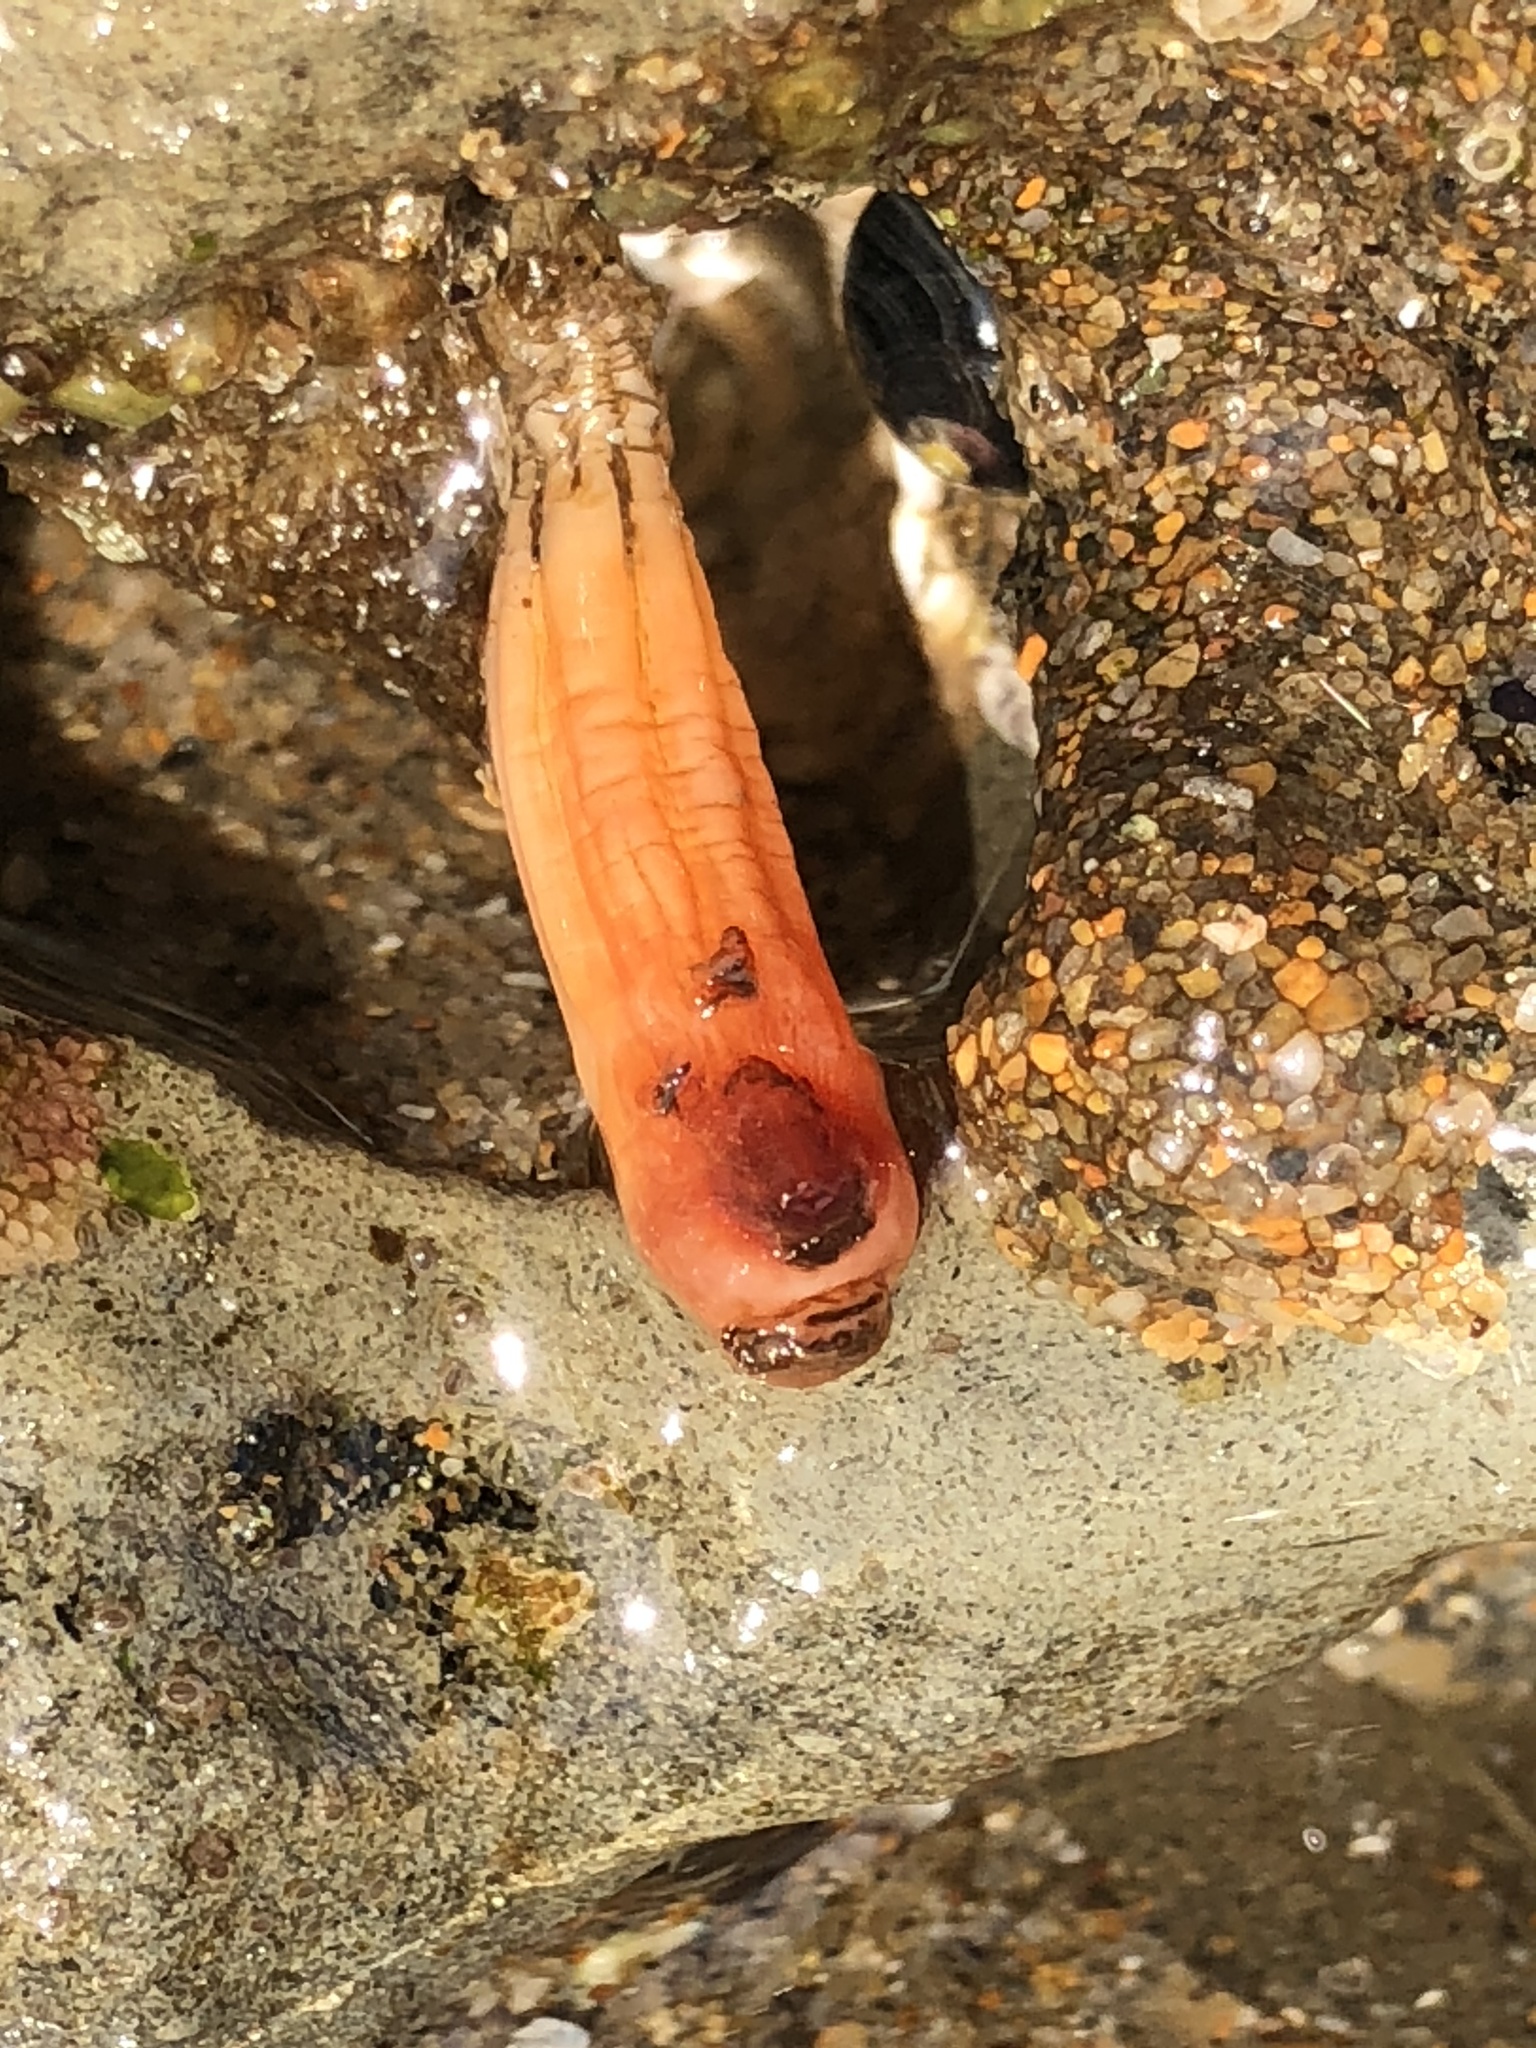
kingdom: Animalia
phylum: Chordata
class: Ascidiacea
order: Stolidobranchia
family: Styelidae
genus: Styela
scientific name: Styela montereyensis
